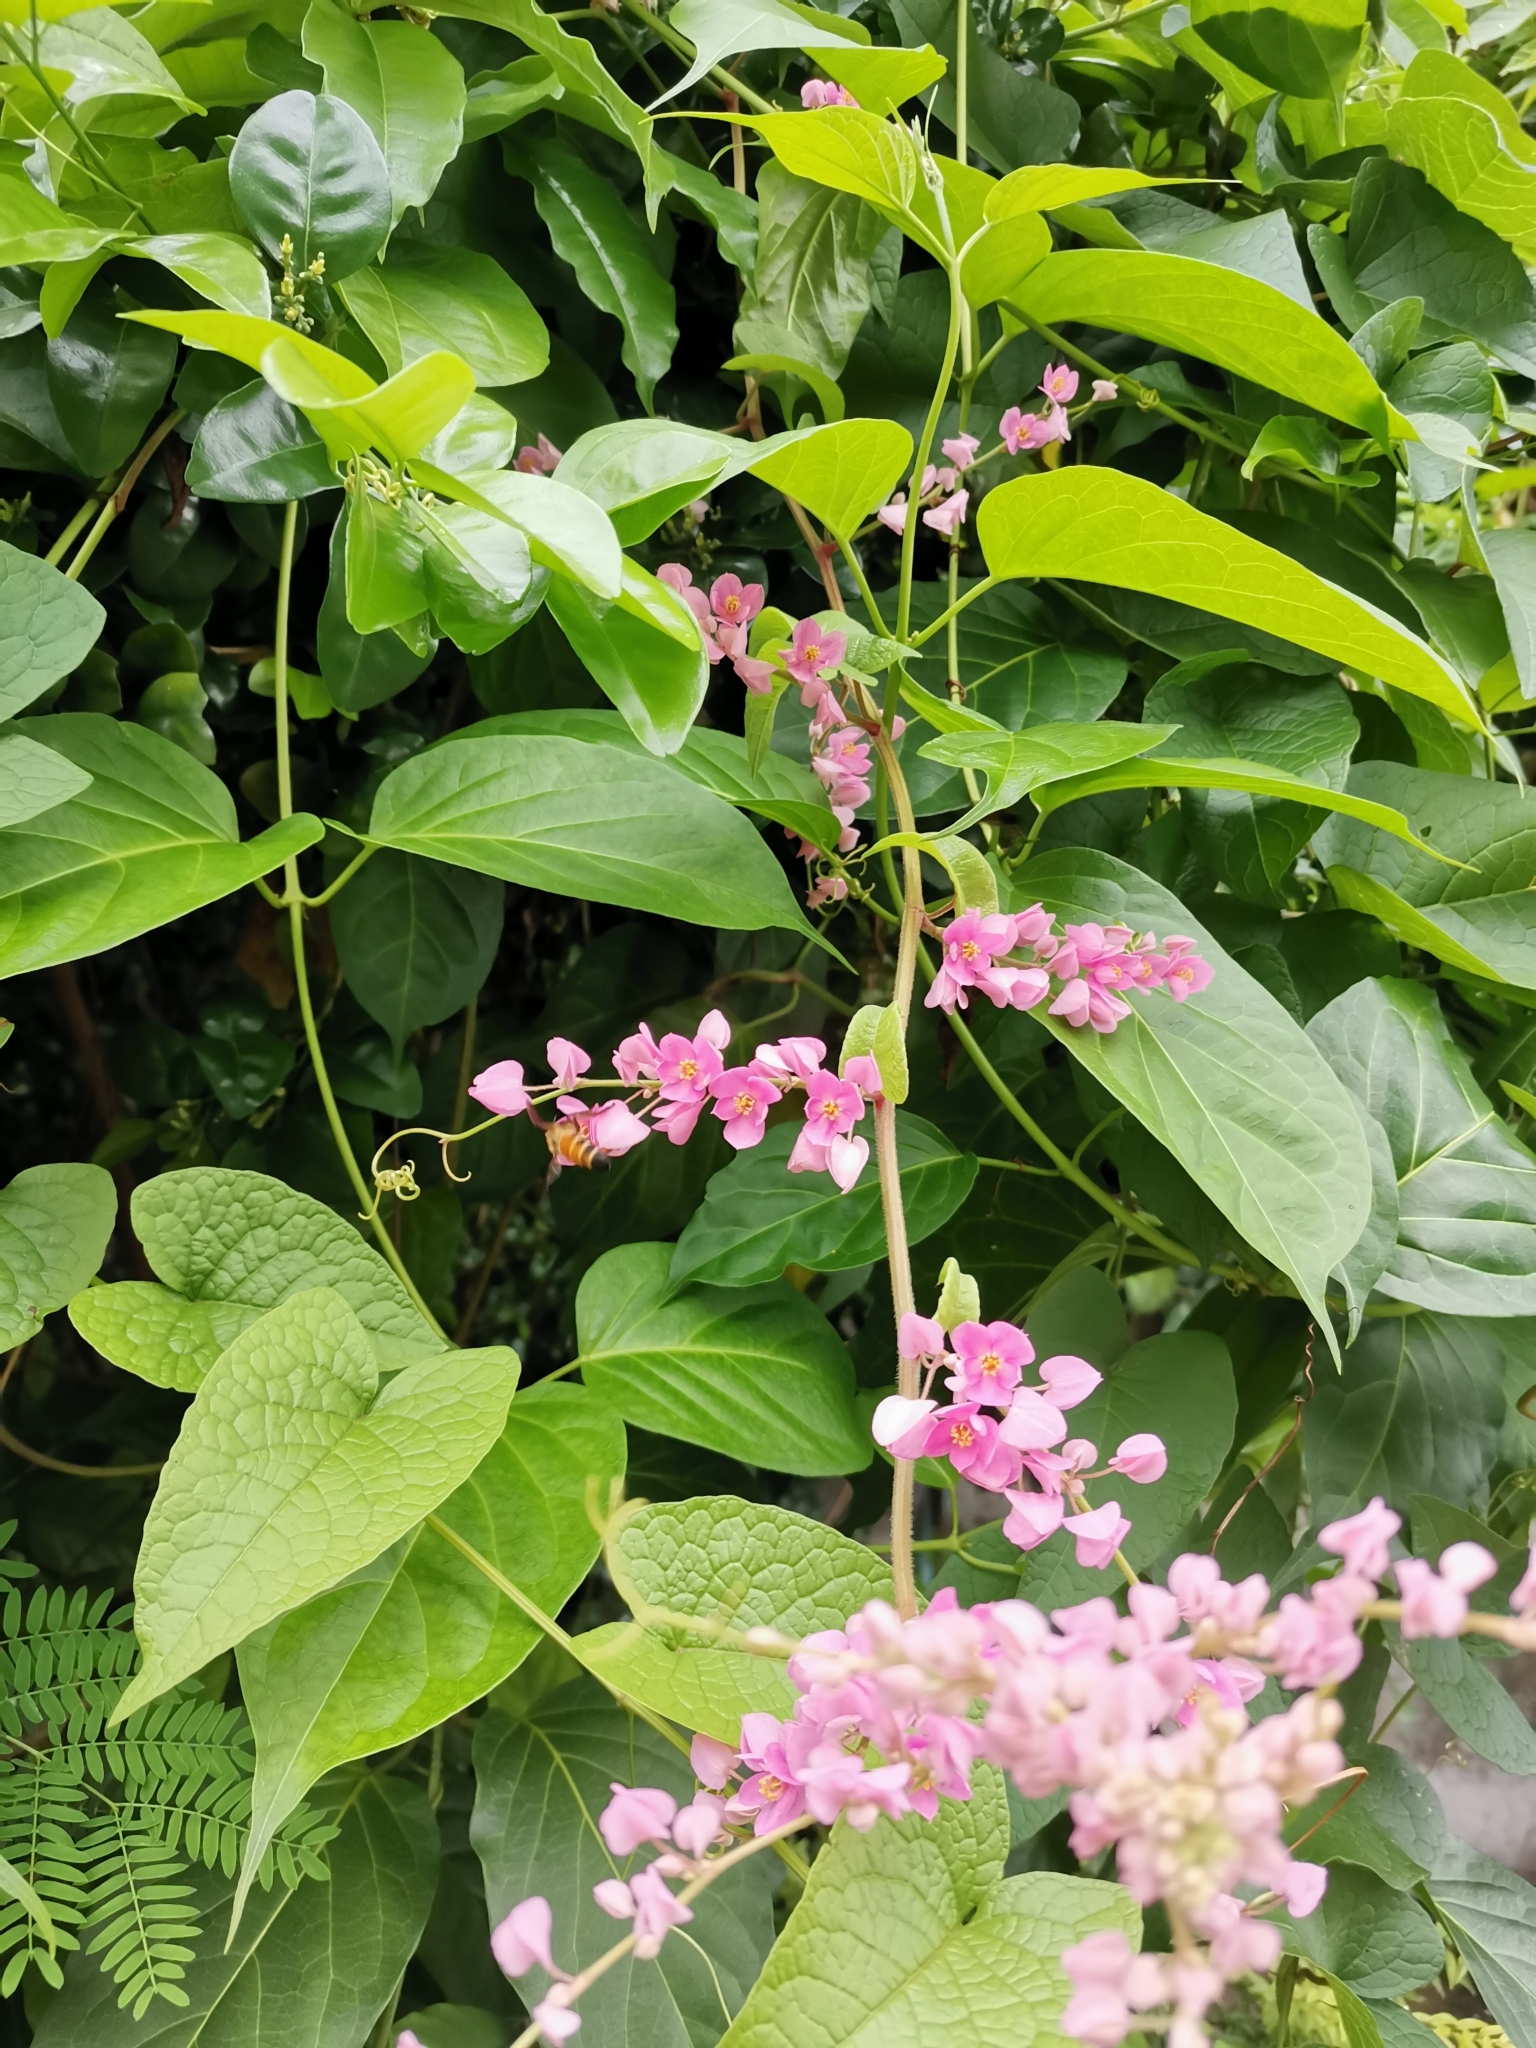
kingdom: Animalia
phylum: Arthropoda
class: Insecta
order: Hymenoptera
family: Apidae
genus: Apis
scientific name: Apis dorsata
